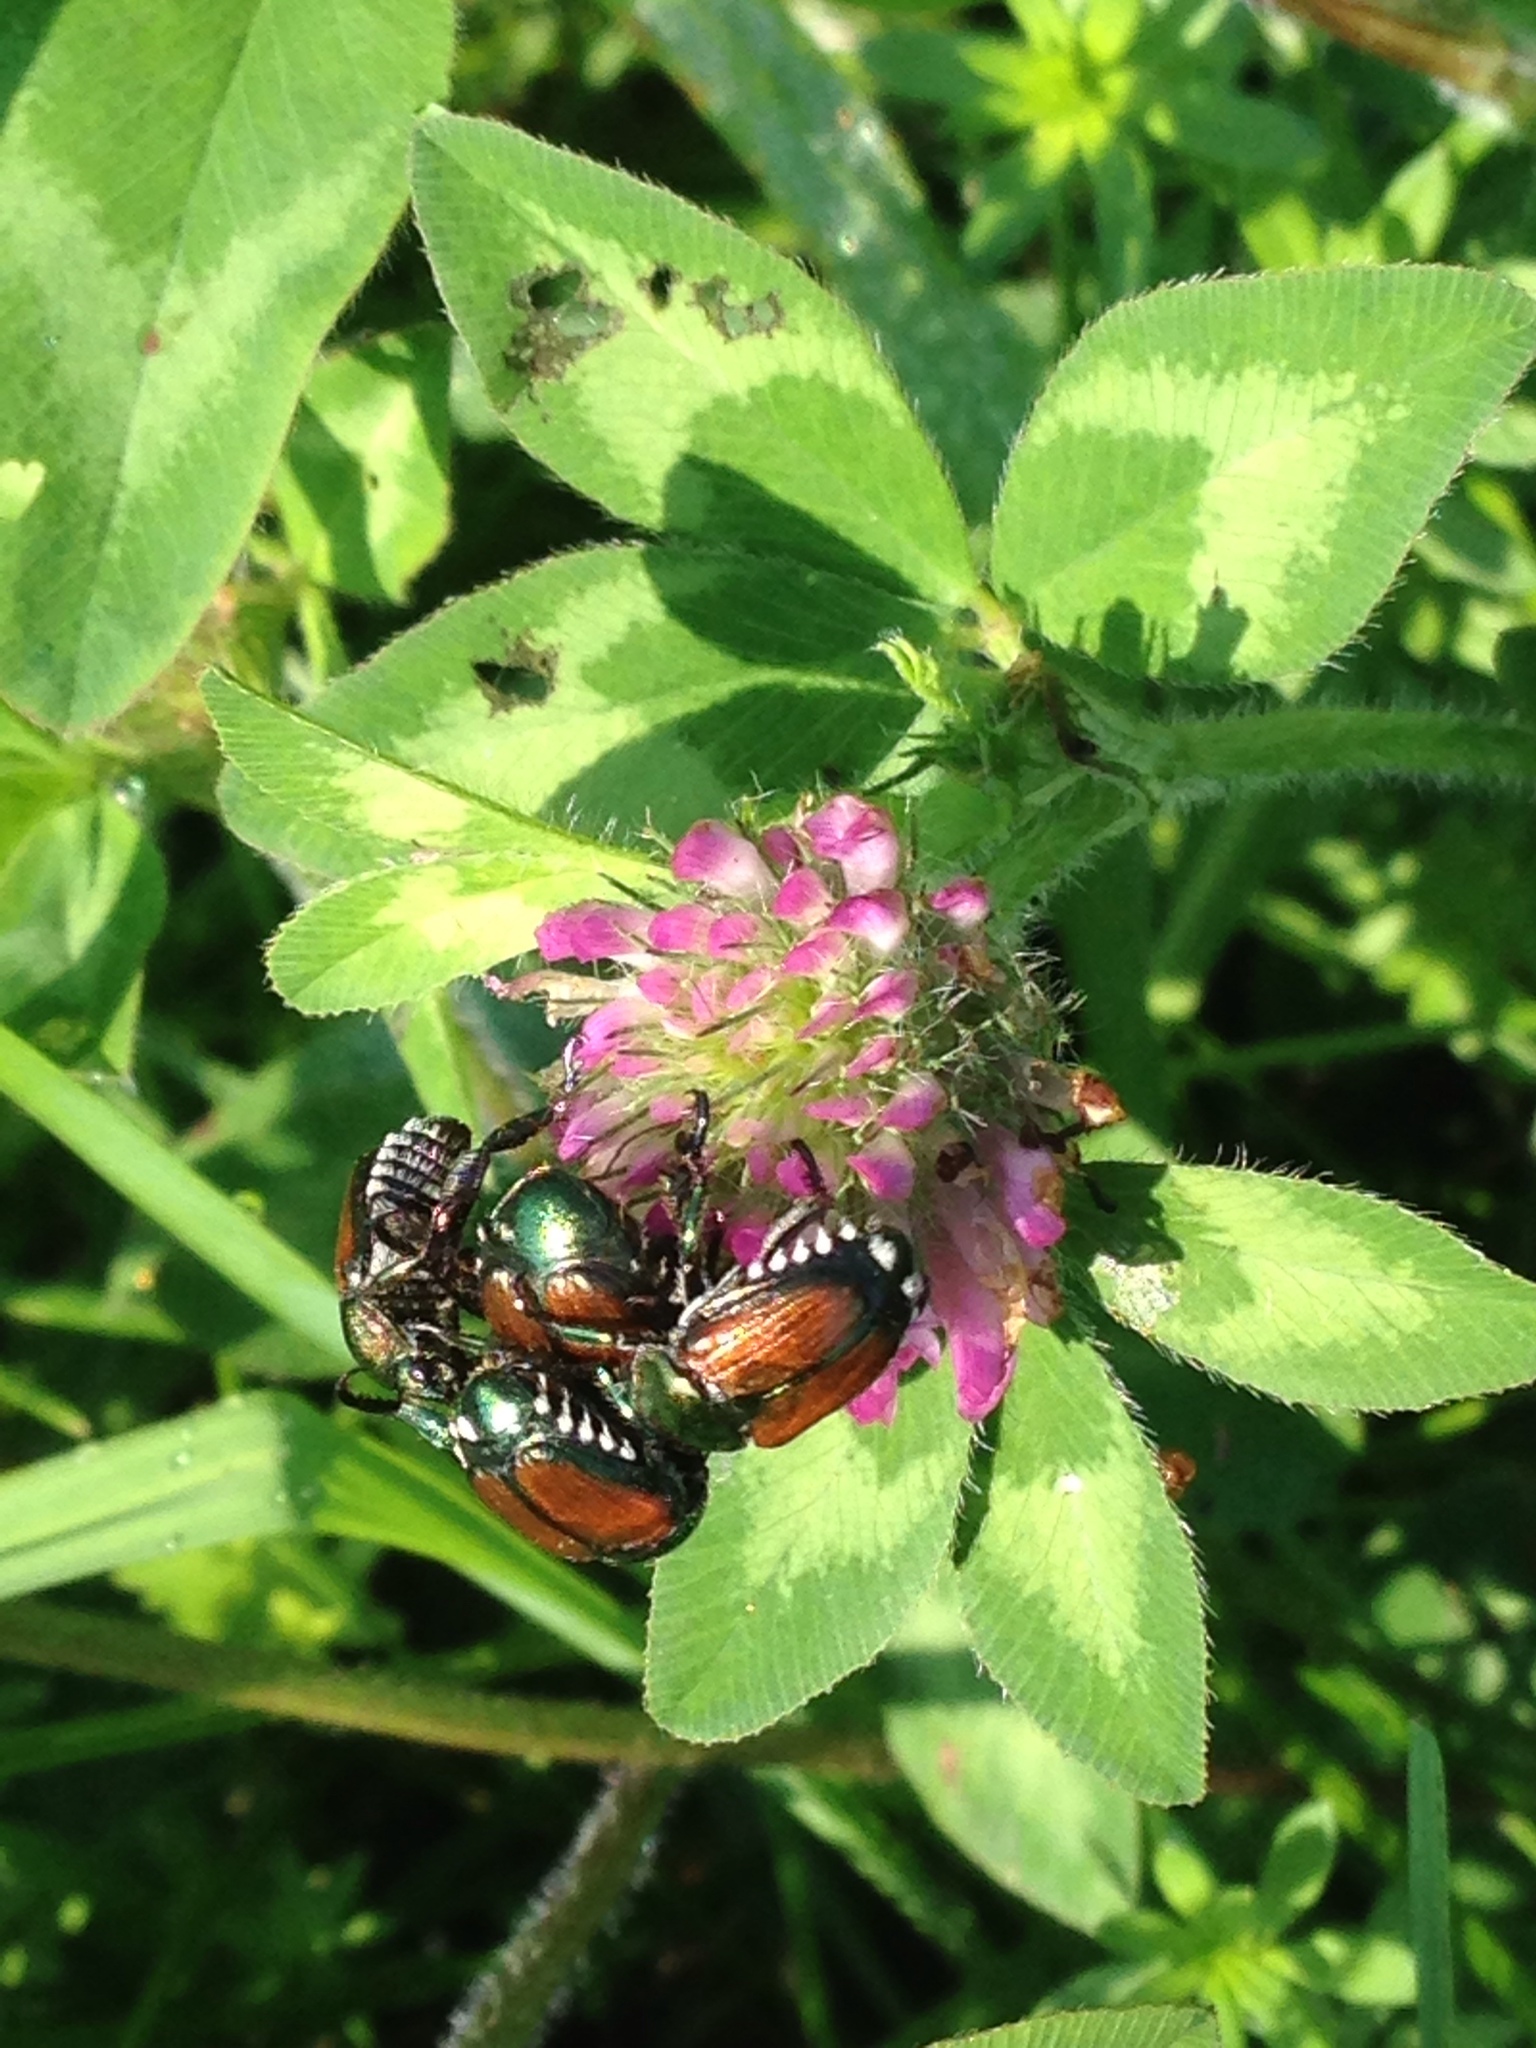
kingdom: Animalia
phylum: Arthropoda
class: Insecta
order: Coleoptera
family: Scarabaeidae
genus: Popillia
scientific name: Popillia japonica
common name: Japanese beetle
